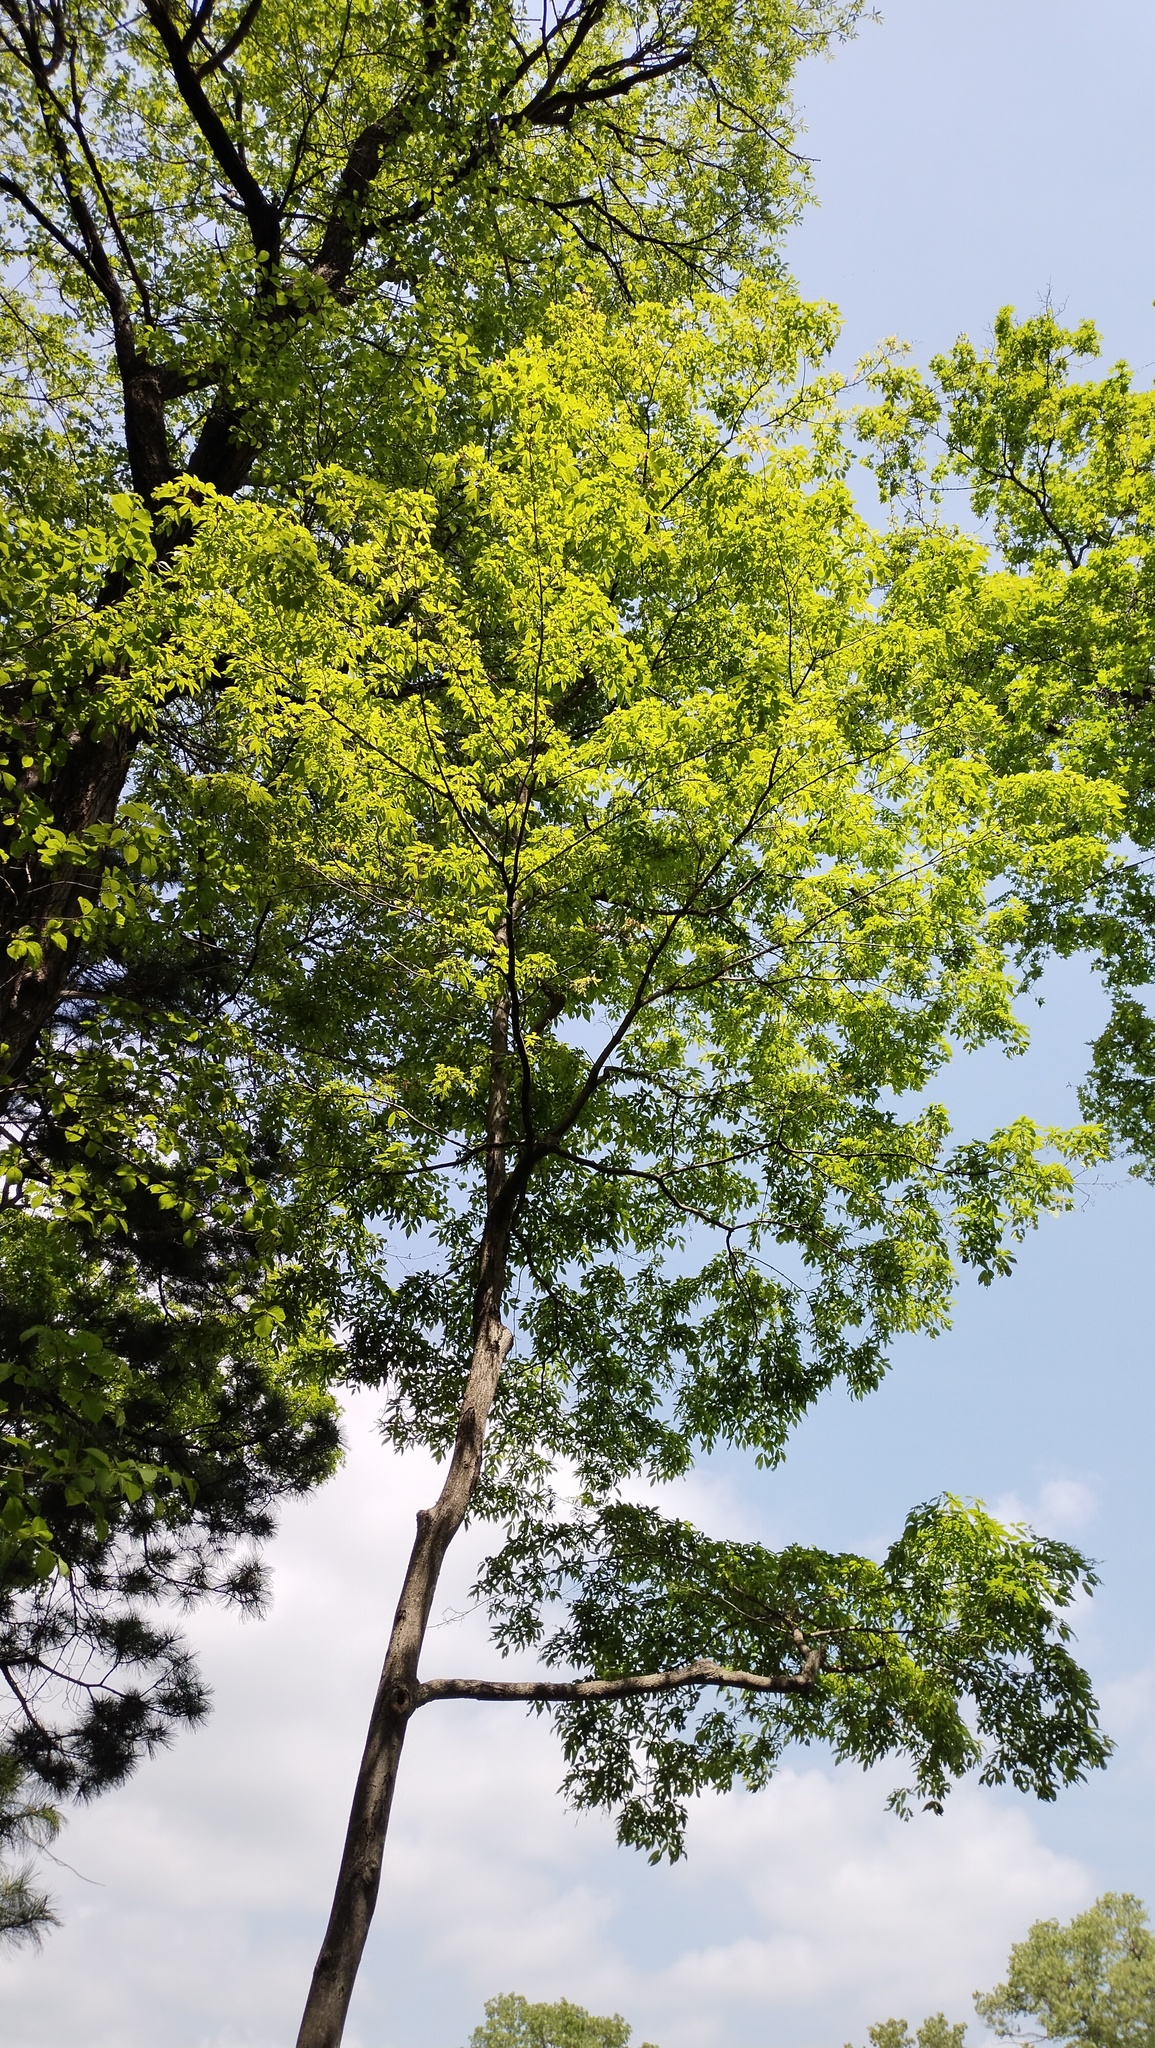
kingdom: Plantae
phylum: Tracheophyta
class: Magnoliopsida
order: Sapindales
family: Sapindaceae
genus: Acer
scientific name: Acer mandshuricum
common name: Manchurian maple
